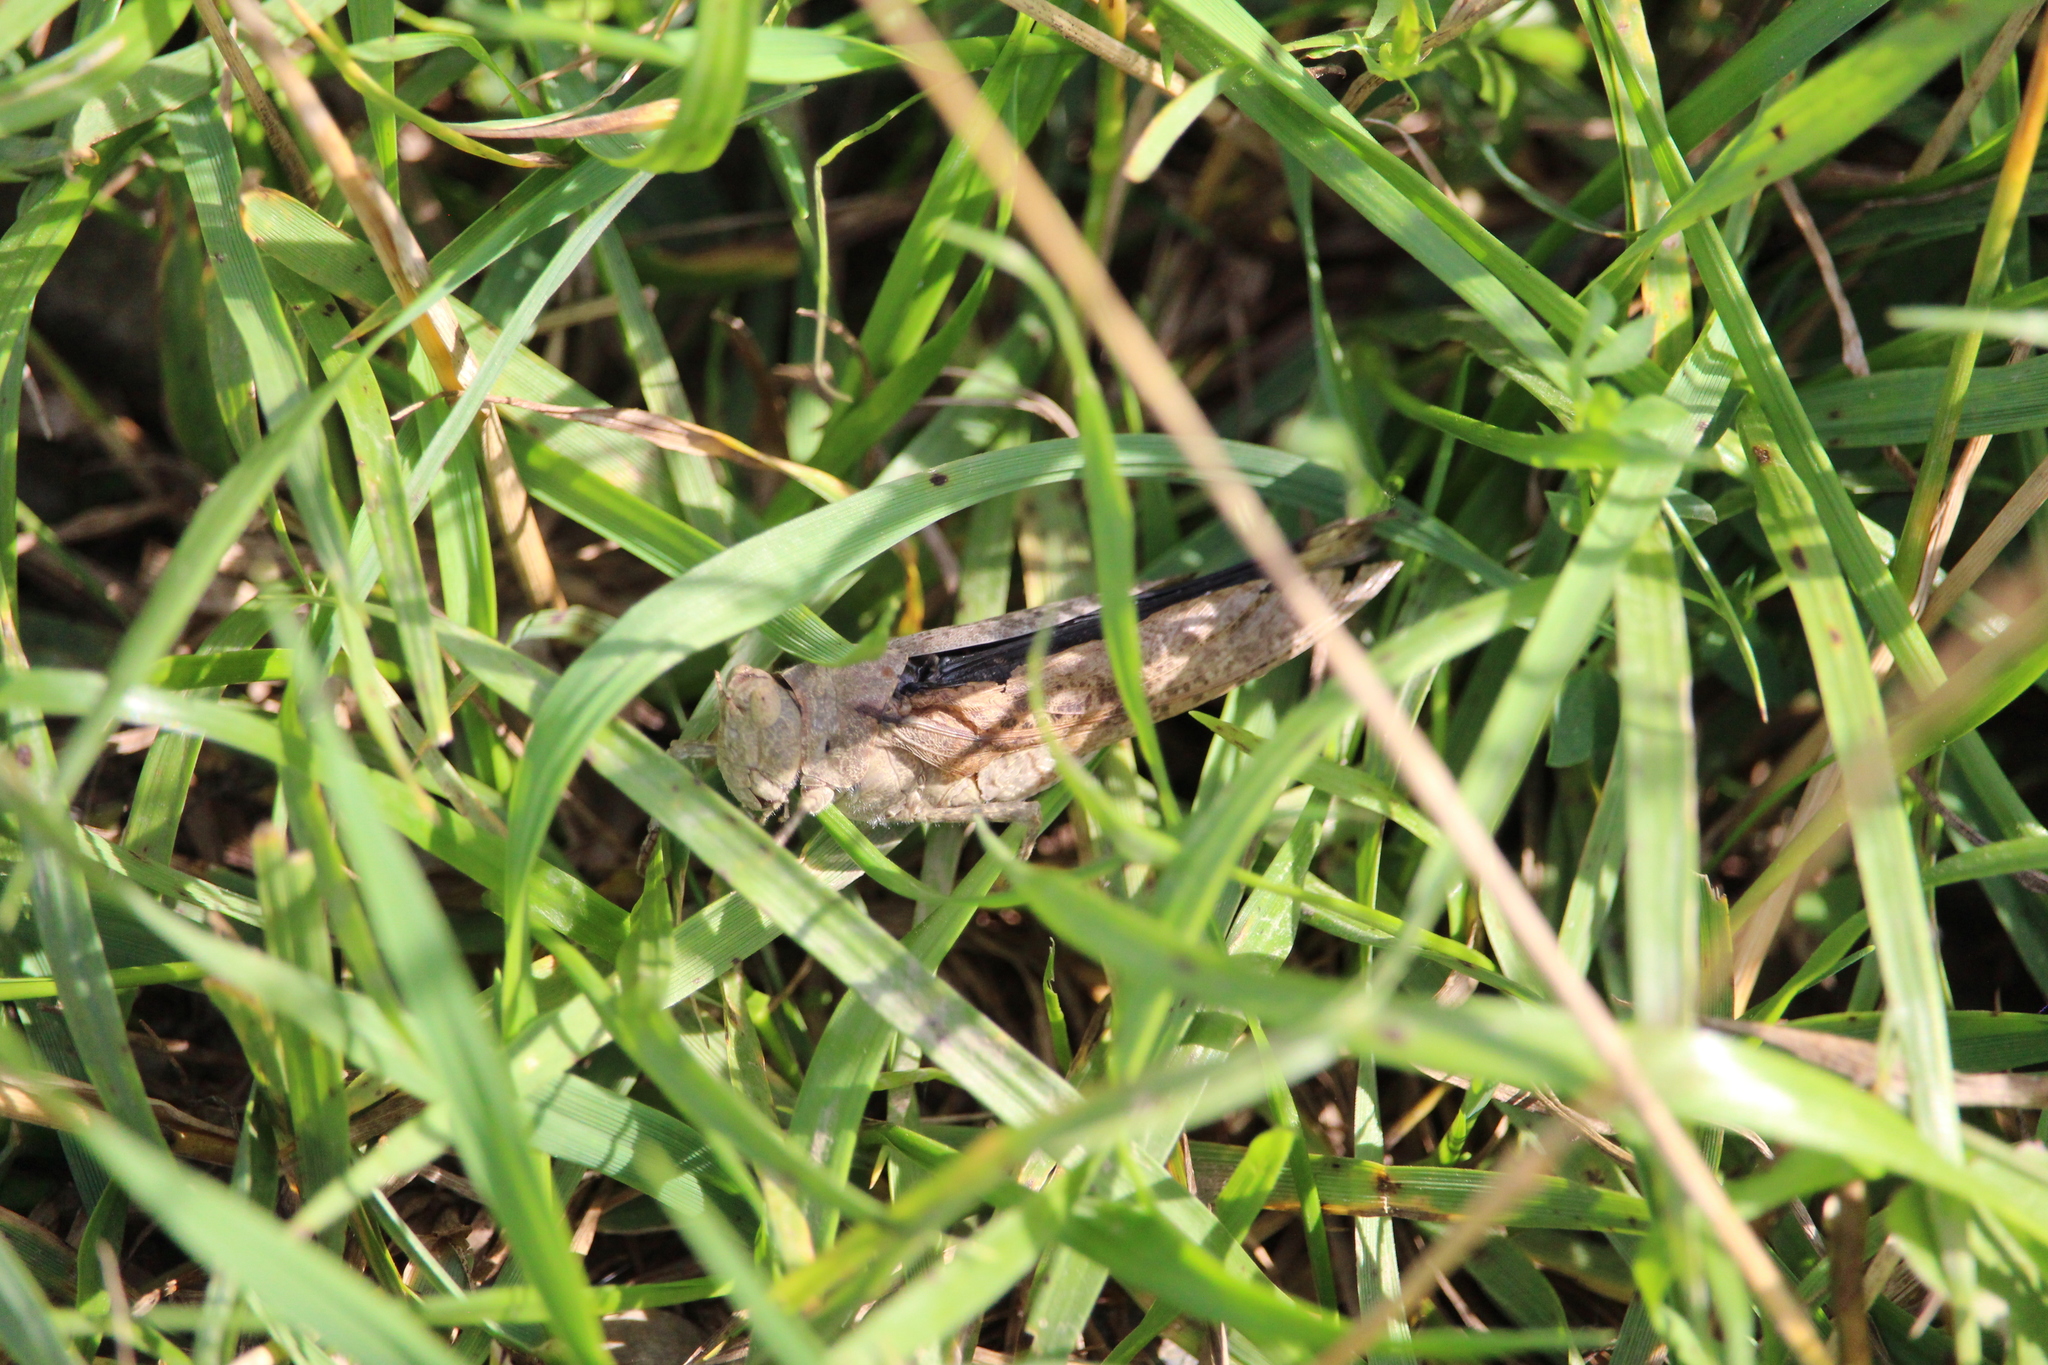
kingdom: Animalia
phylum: Arthropoda
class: Insecta
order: Orthoptera
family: Acrididae
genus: Dissosteira
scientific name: Dissosteira carolina
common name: Carolina grasshopper
